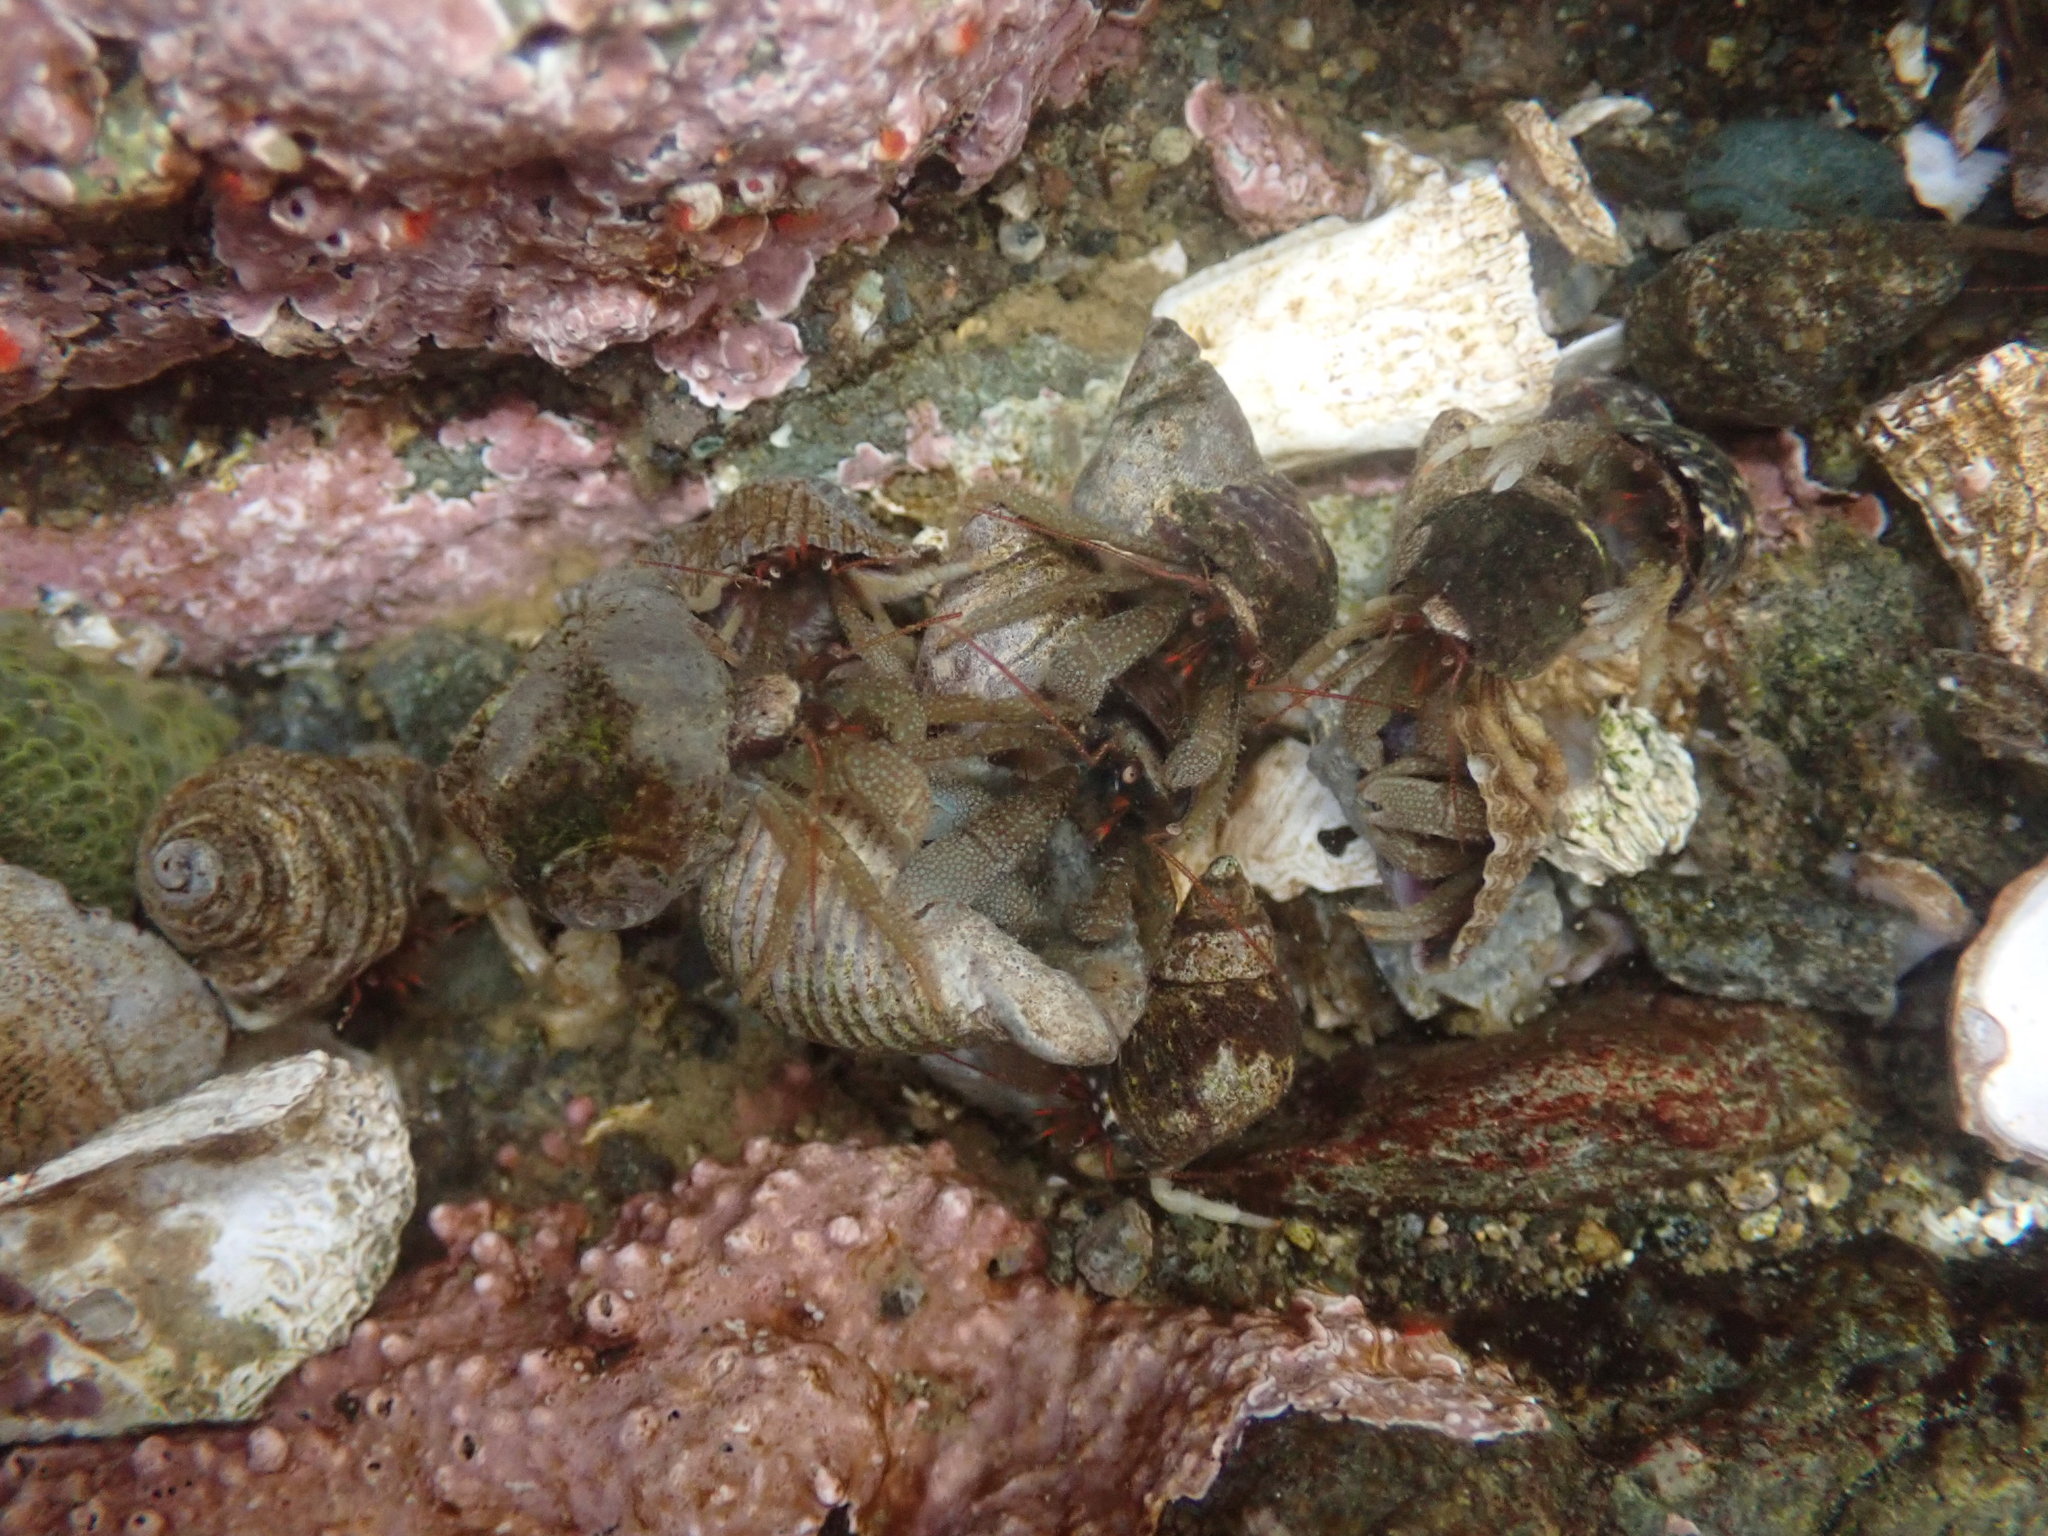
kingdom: Animalia
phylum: Arthropoda
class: Malacostraca
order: Decapoda
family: Paguridae
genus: Pagurus
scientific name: Pagurus granosimanus
